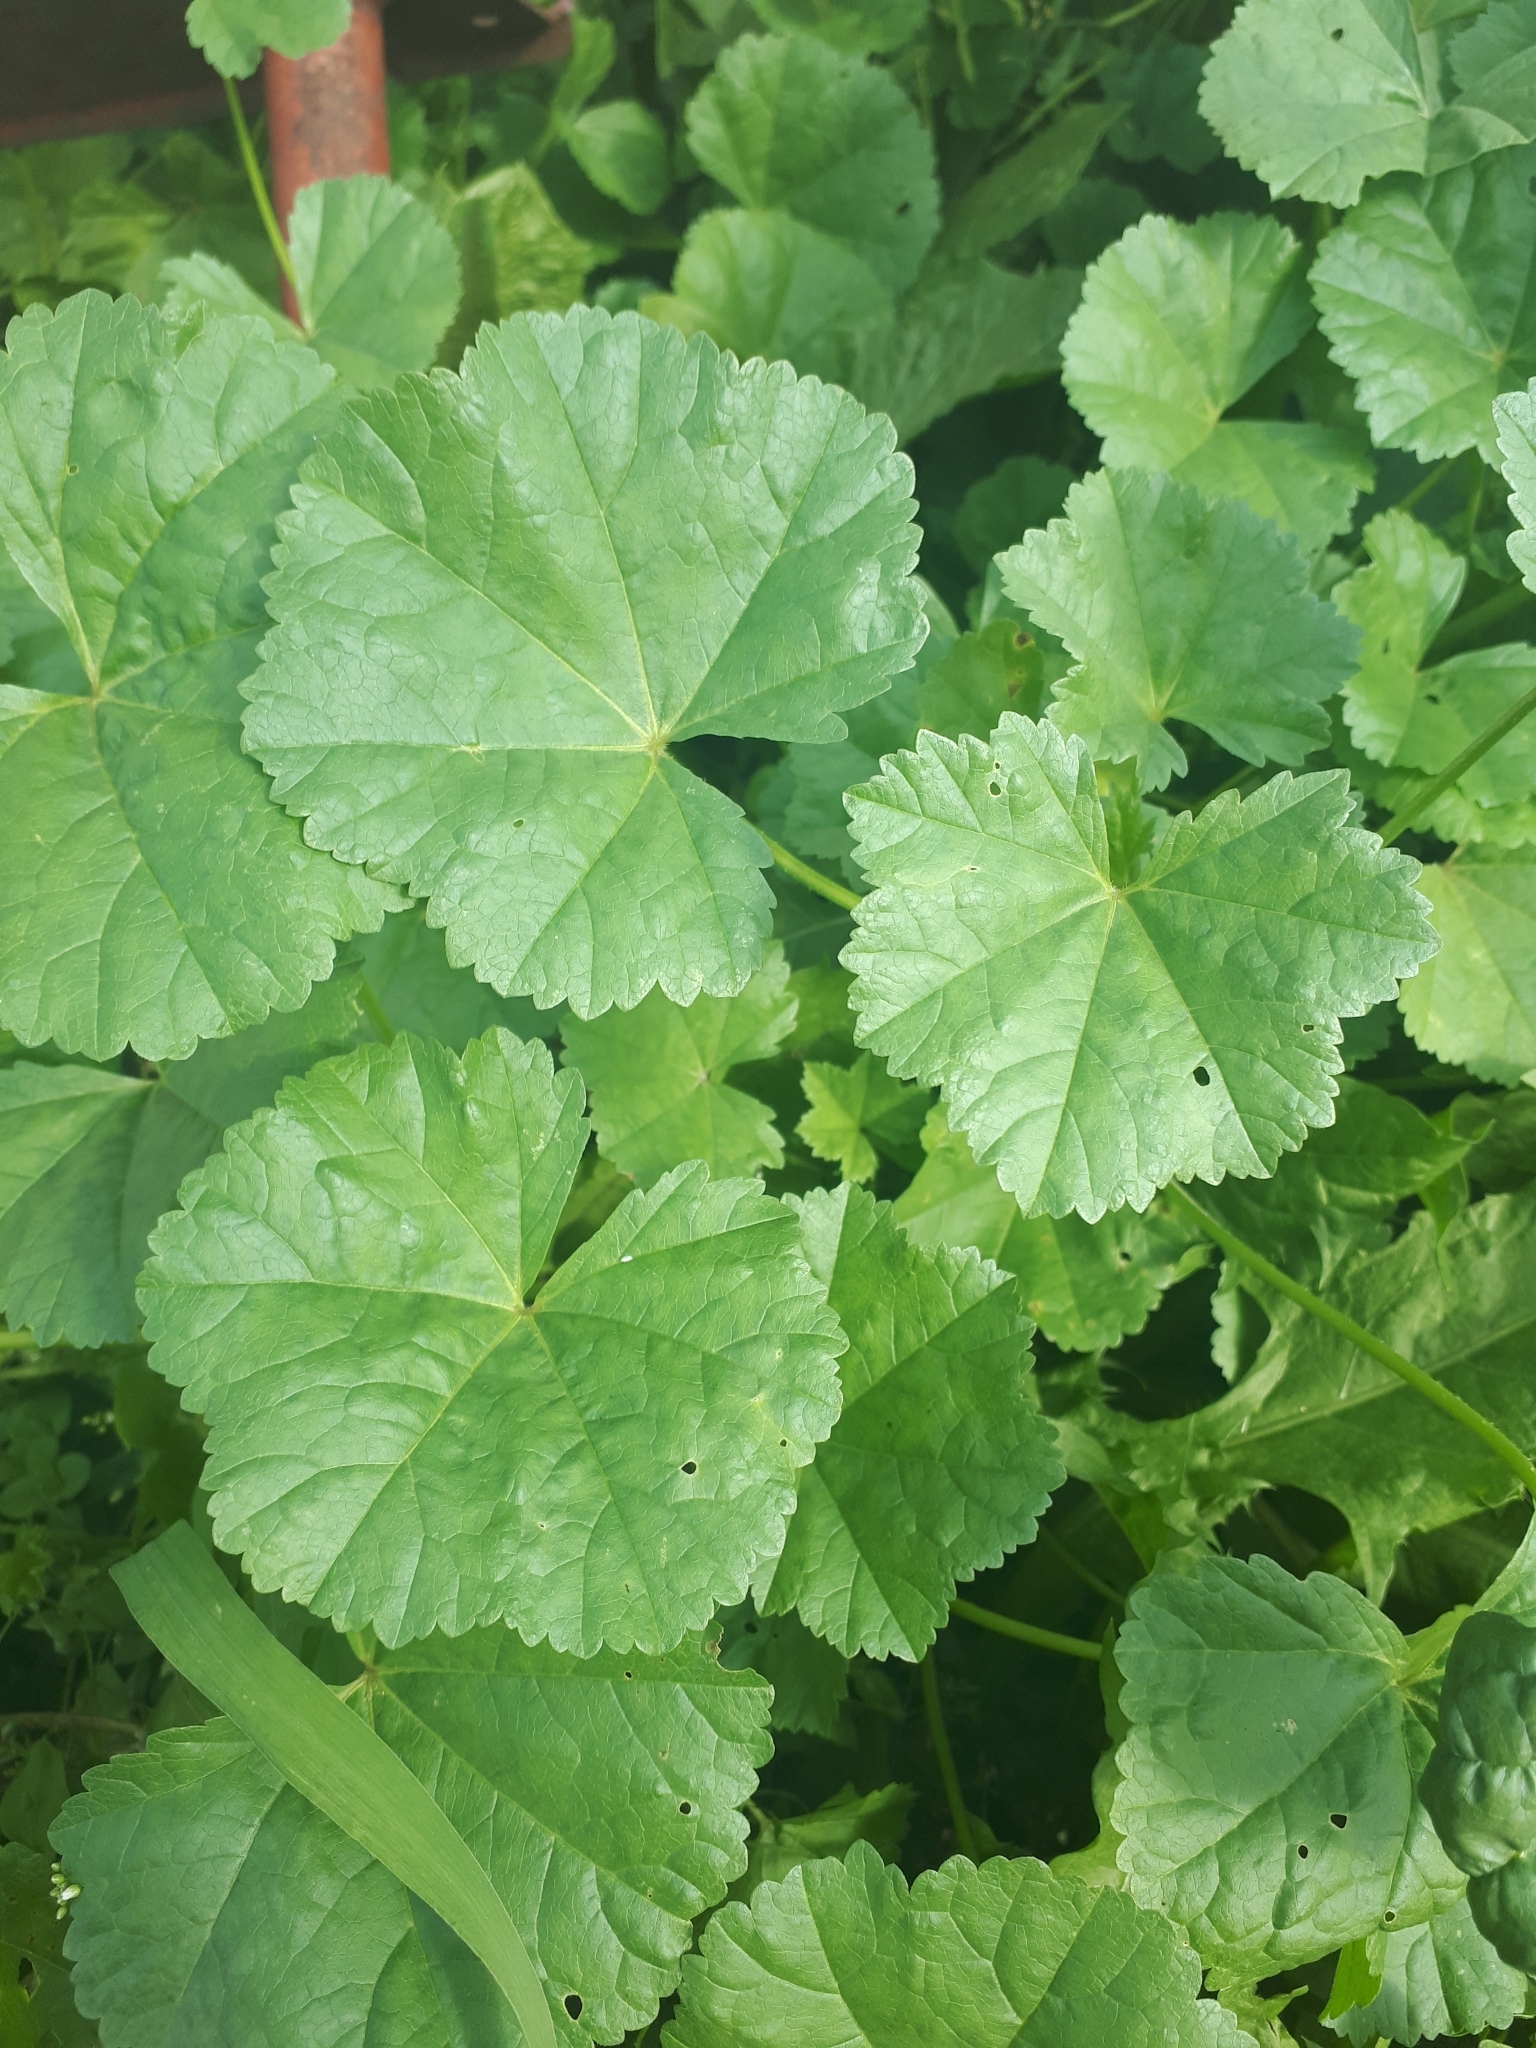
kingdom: Plantae
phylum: Tracheophyta
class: Magnoliopsida
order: Malvales
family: Malvaceae
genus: Malva
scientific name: Malva pusilla
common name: Small mallow
